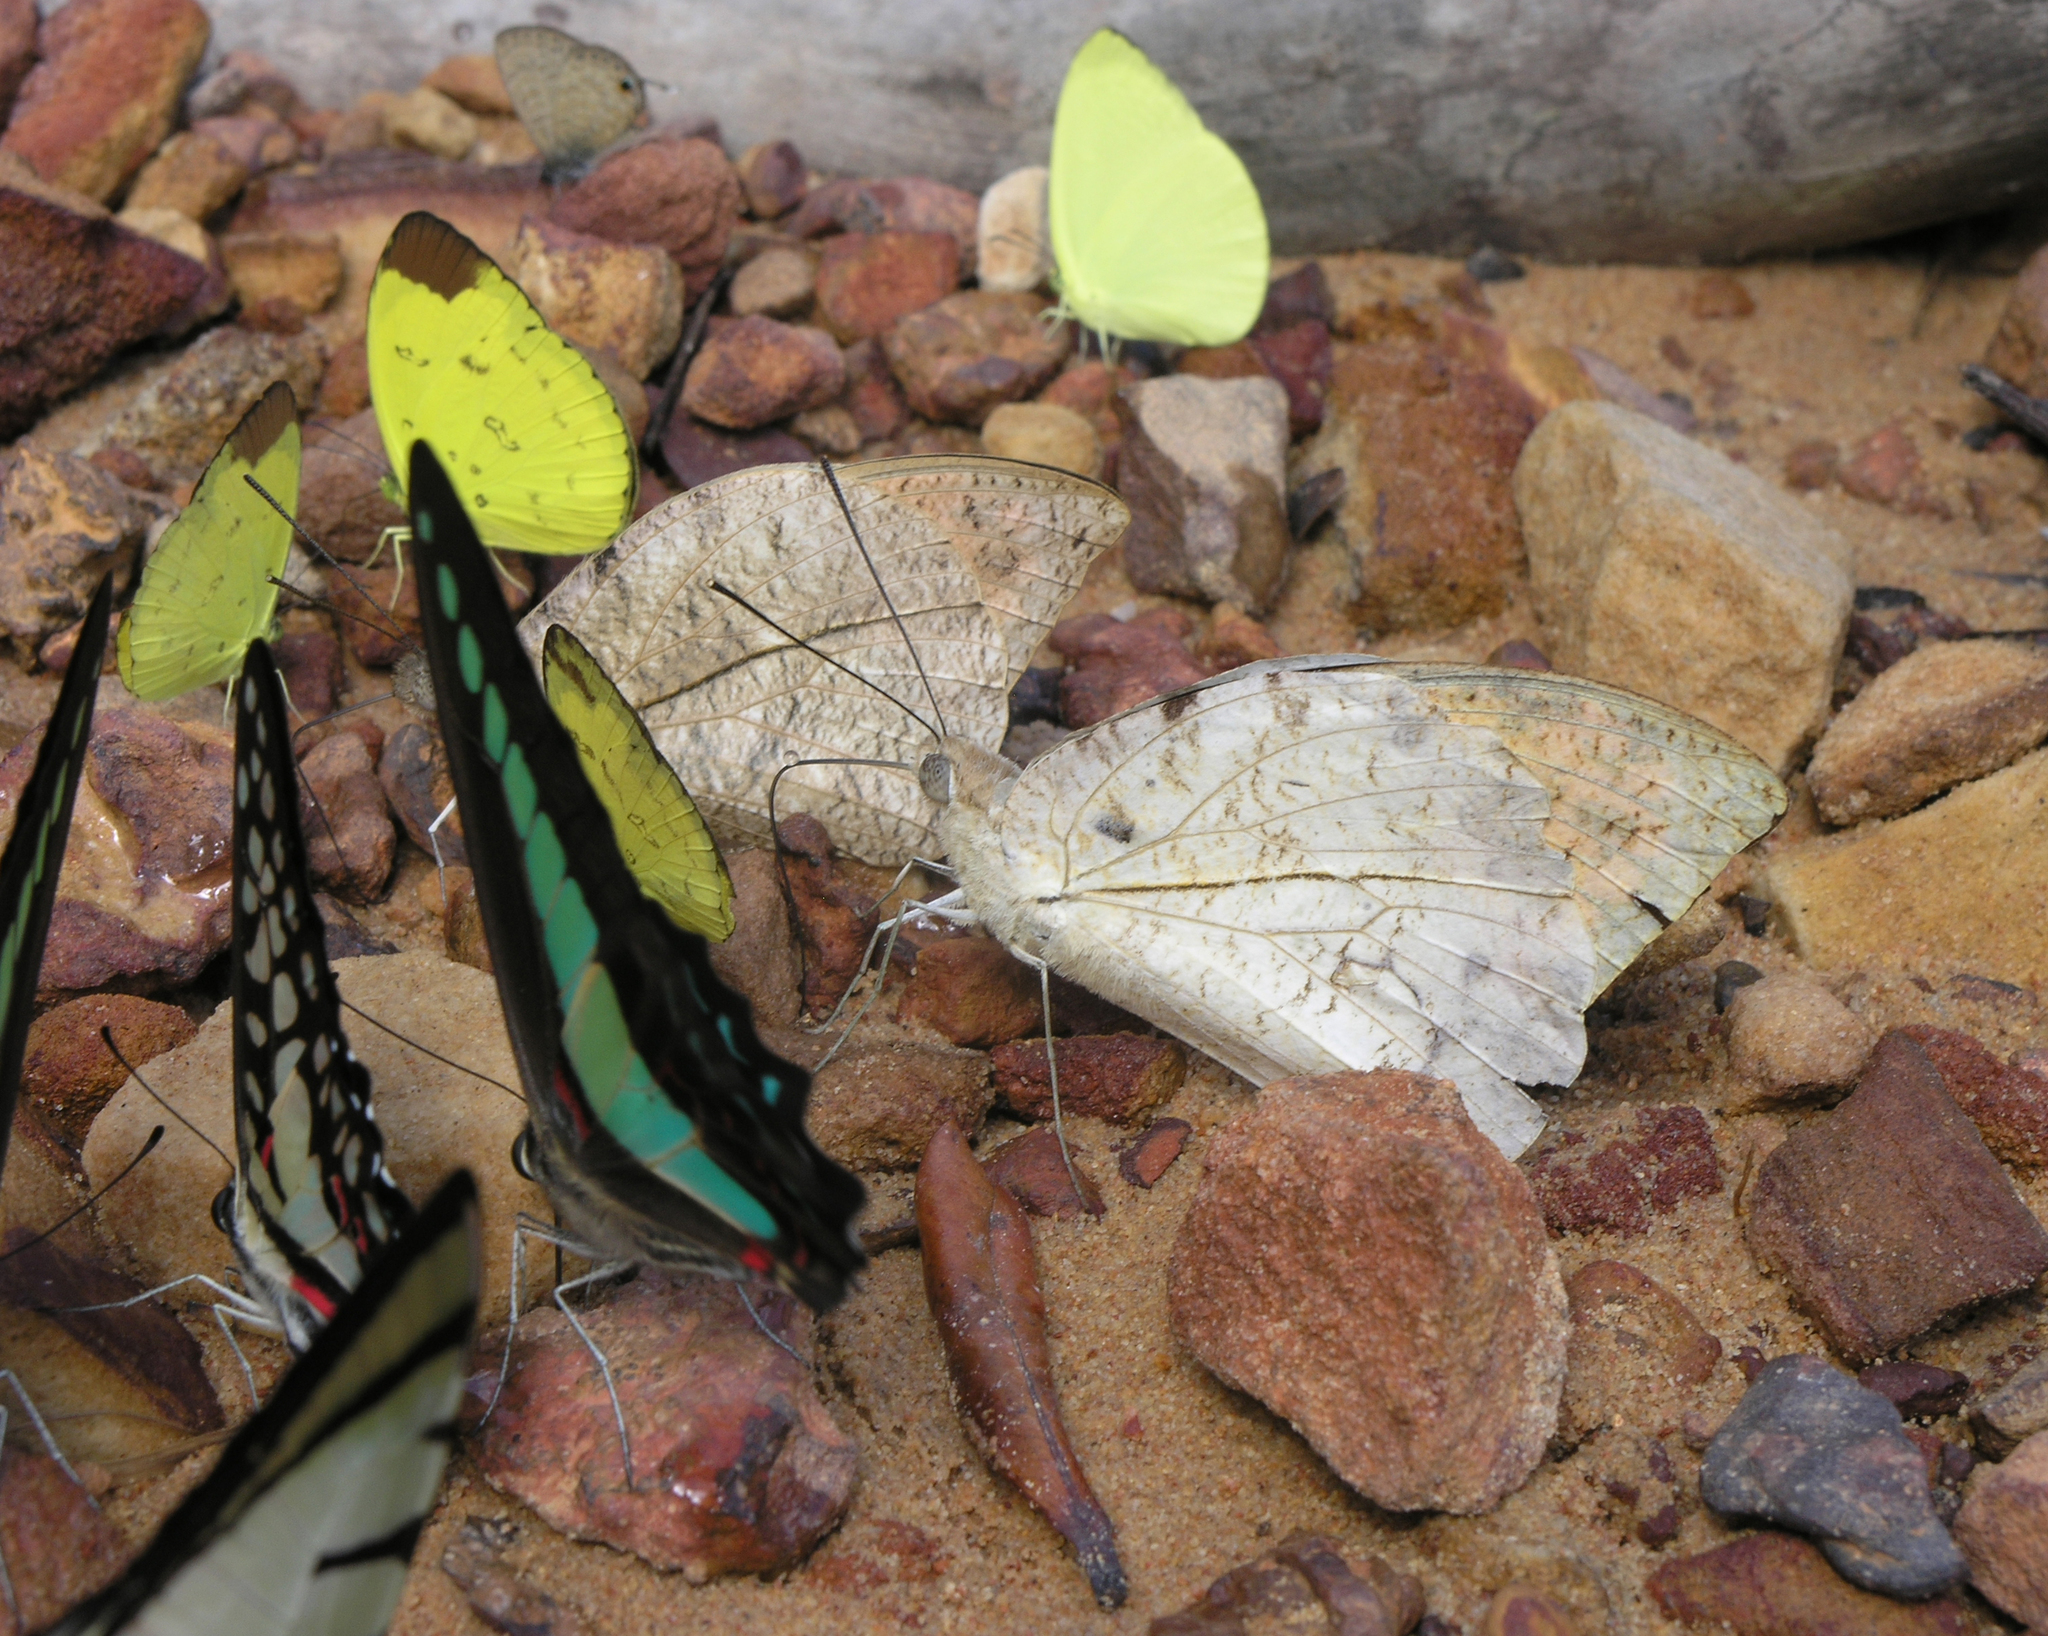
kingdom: Animalia
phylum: Arthropoda
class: Insecta
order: Lepidoptera
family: Pieridae
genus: Eurema
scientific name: Eurema sari
